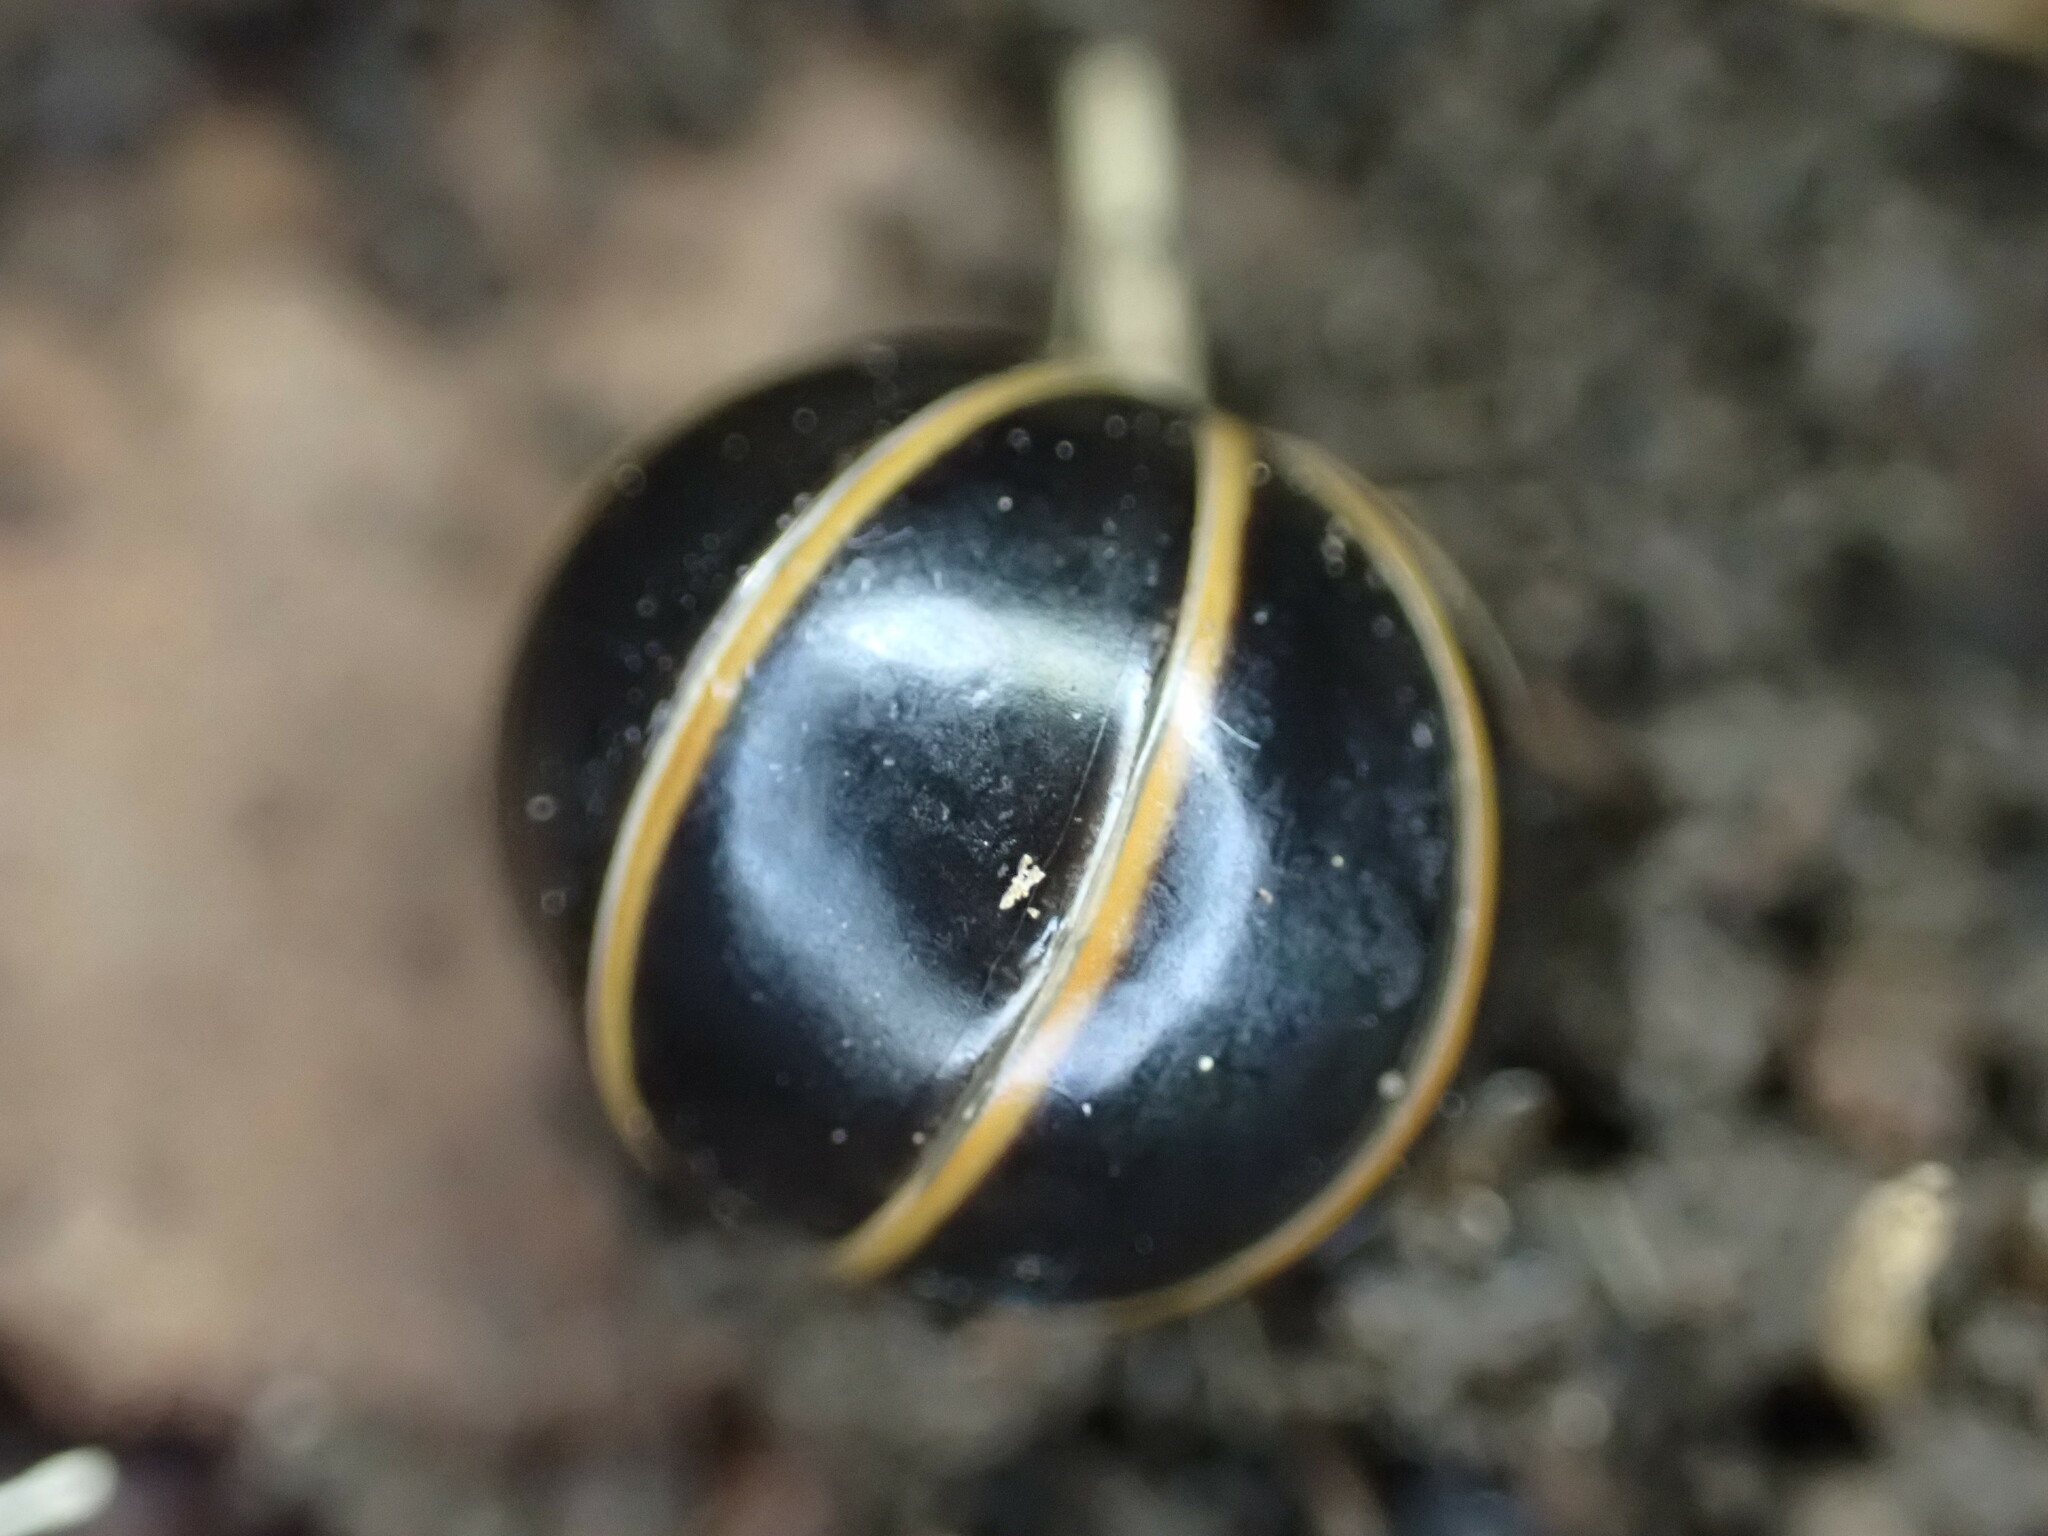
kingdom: Animalia
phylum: Arthropoda
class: Diplopoda
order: Glomerida
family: Glomeridae
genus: Glomeris
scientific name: Glomeris marginata
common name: Bordered pill millipede
